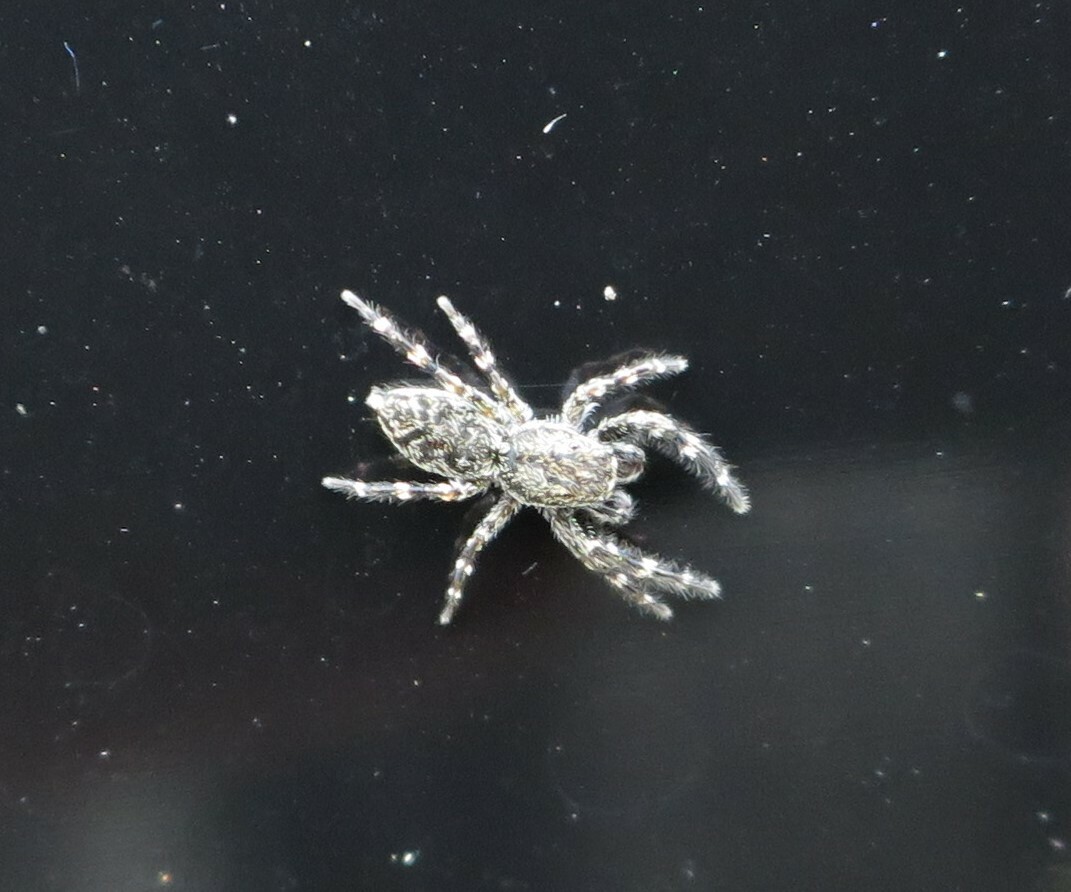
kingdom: Animalia
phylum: Arthropoda
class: Arachnida
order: Araneae
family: Salticidae
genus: Adoxotoma
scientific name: Adoxotoma forsteri
